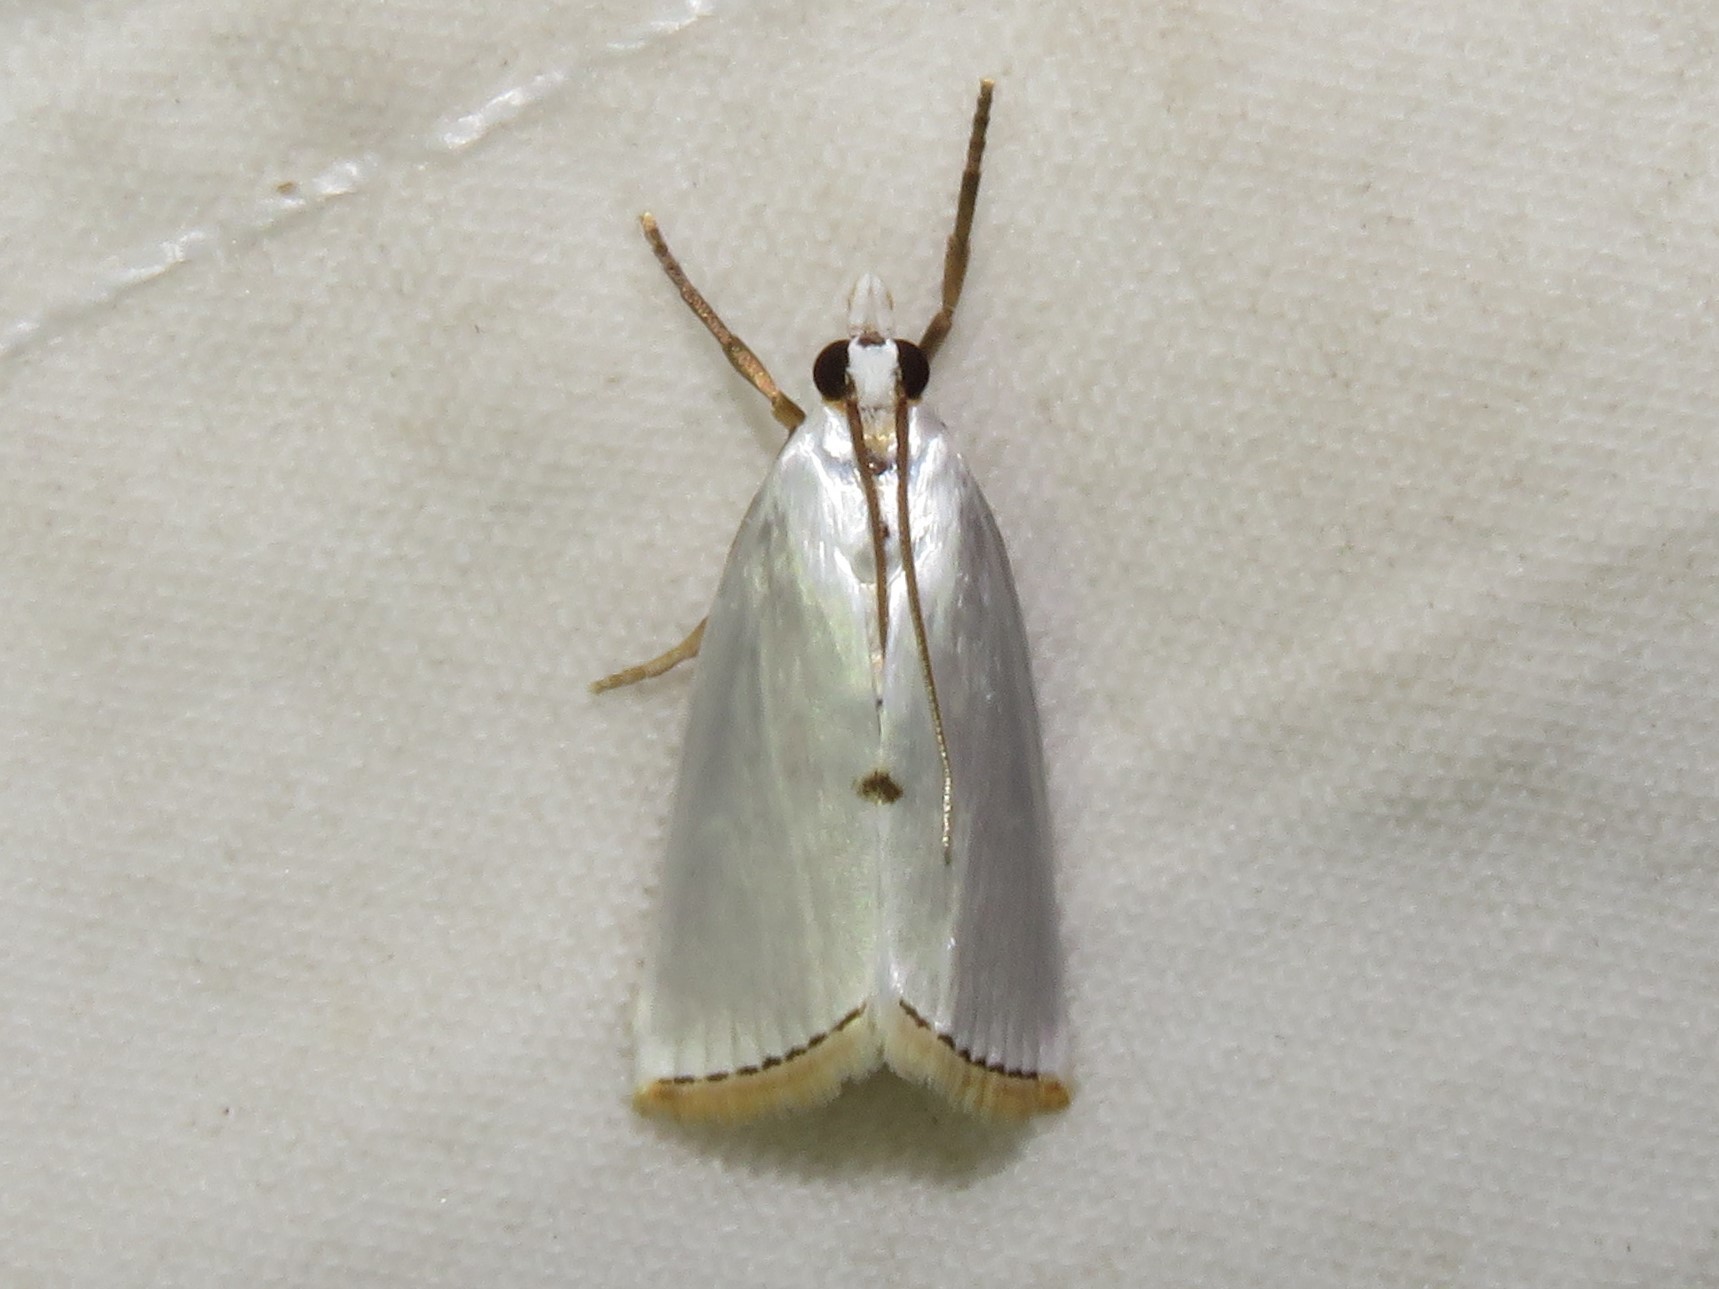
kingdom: Animalia
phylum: Arthropoda
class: Insecta
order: Lepidoptera
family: Crambidae
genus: Argyria
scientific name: Argyria nivalis
